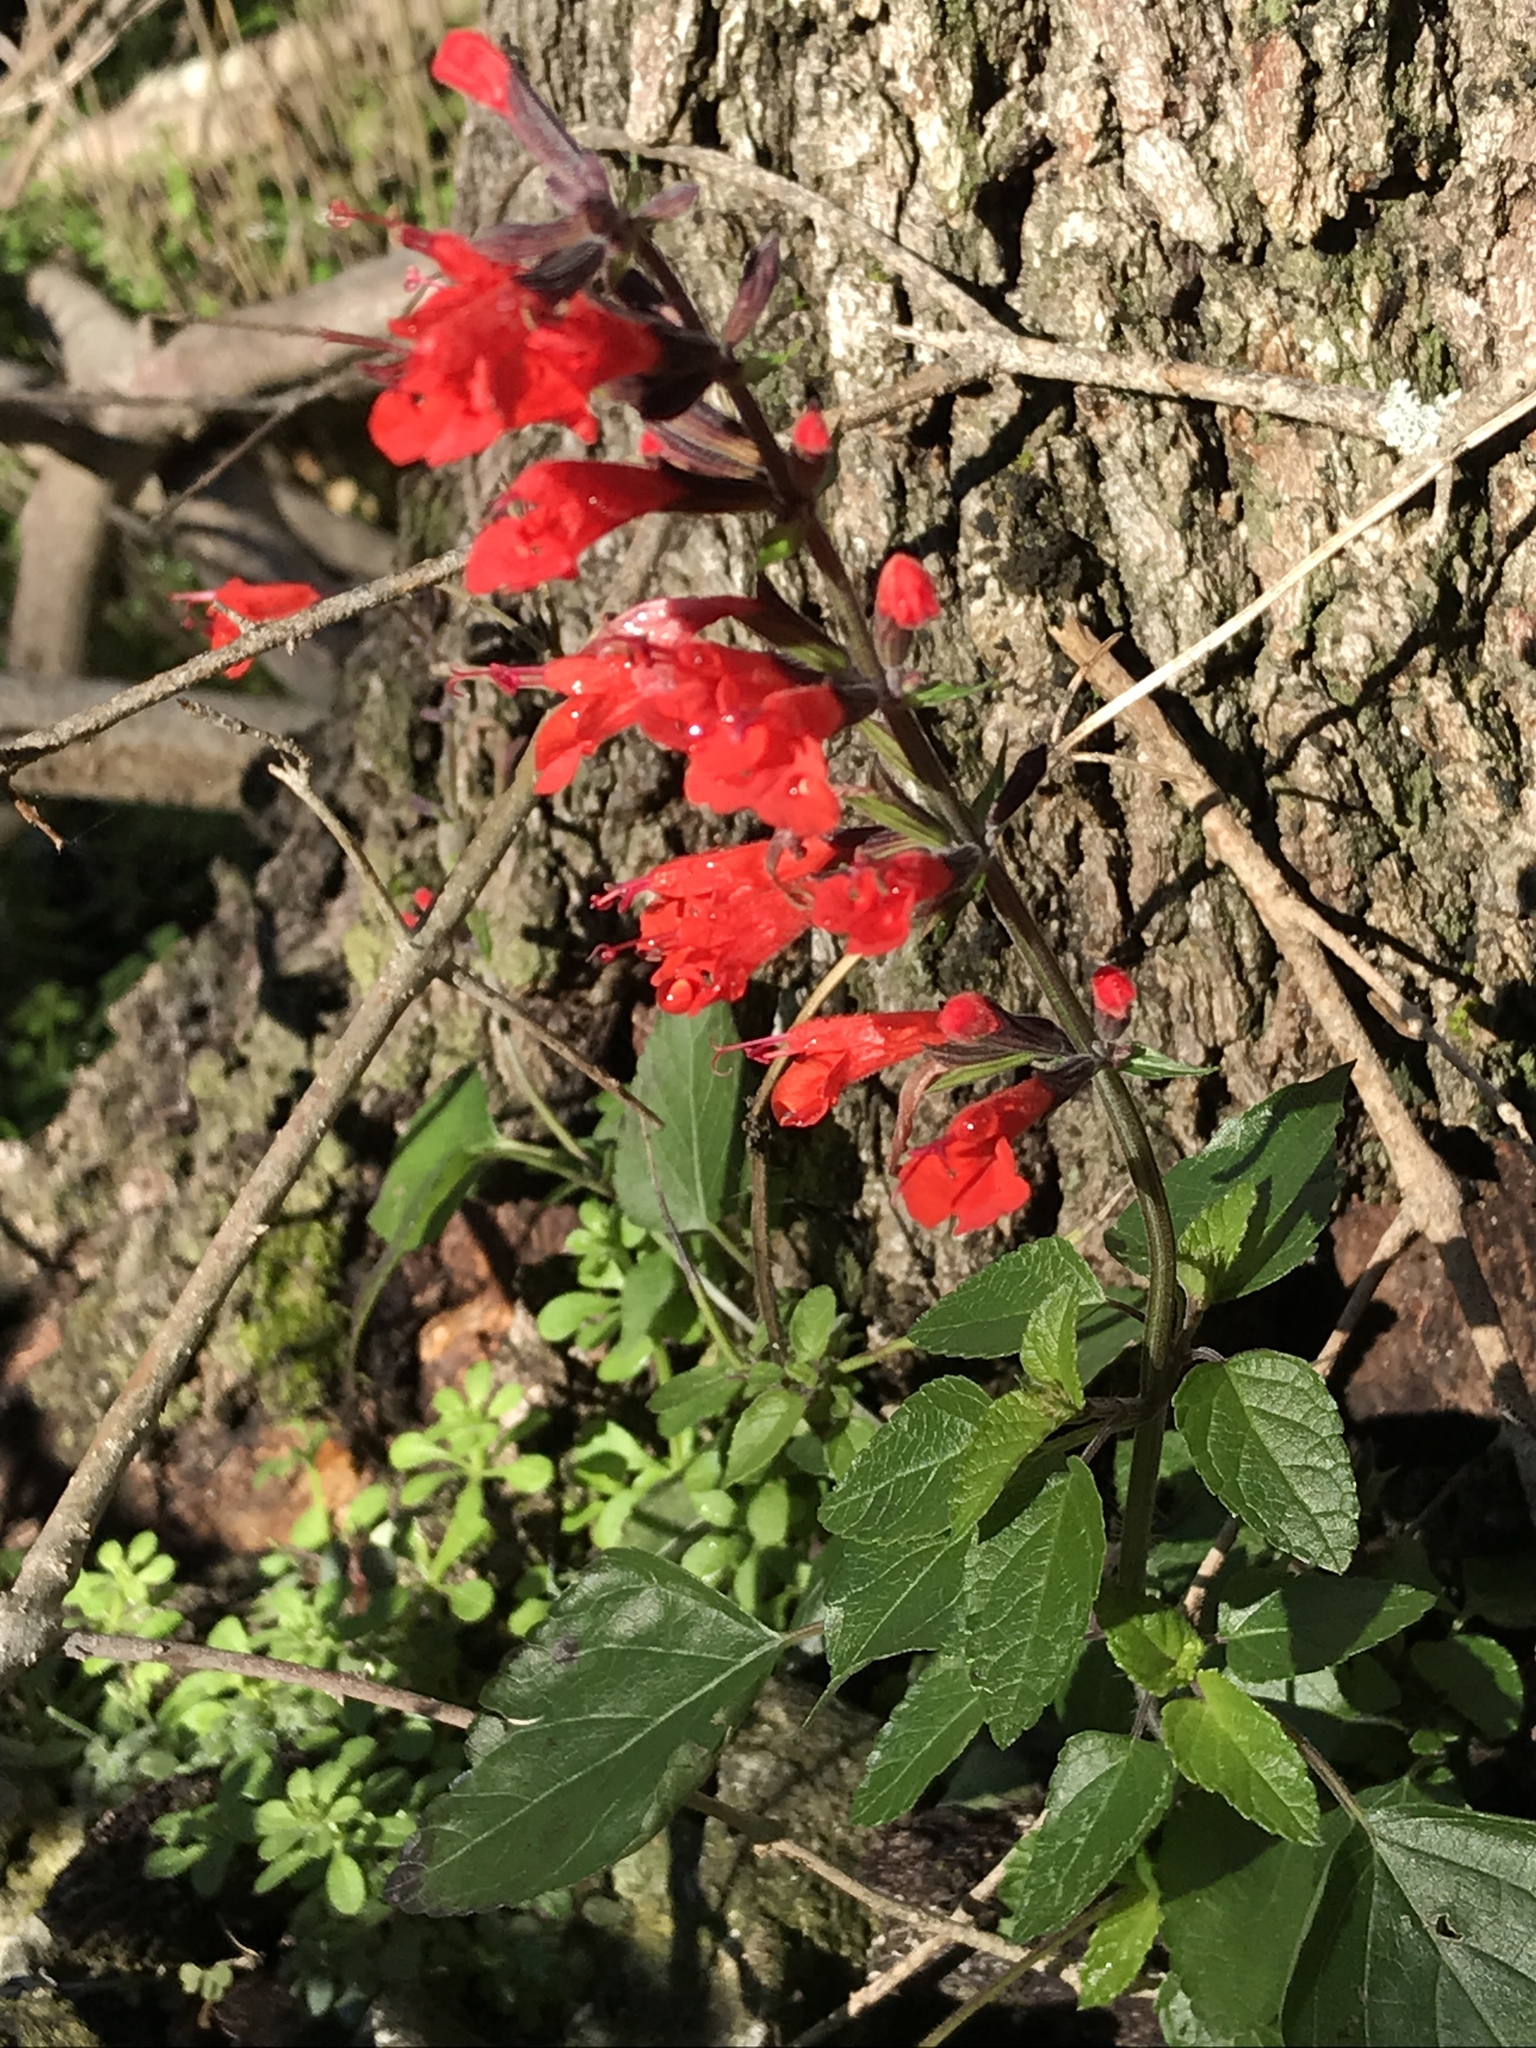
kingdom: Plantae
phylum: Tracheophyta
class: Magnoliopsida
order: Lamiales
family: Lamiaceae
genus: Salvia
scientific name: Salvia coccinea
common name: Blood sage
